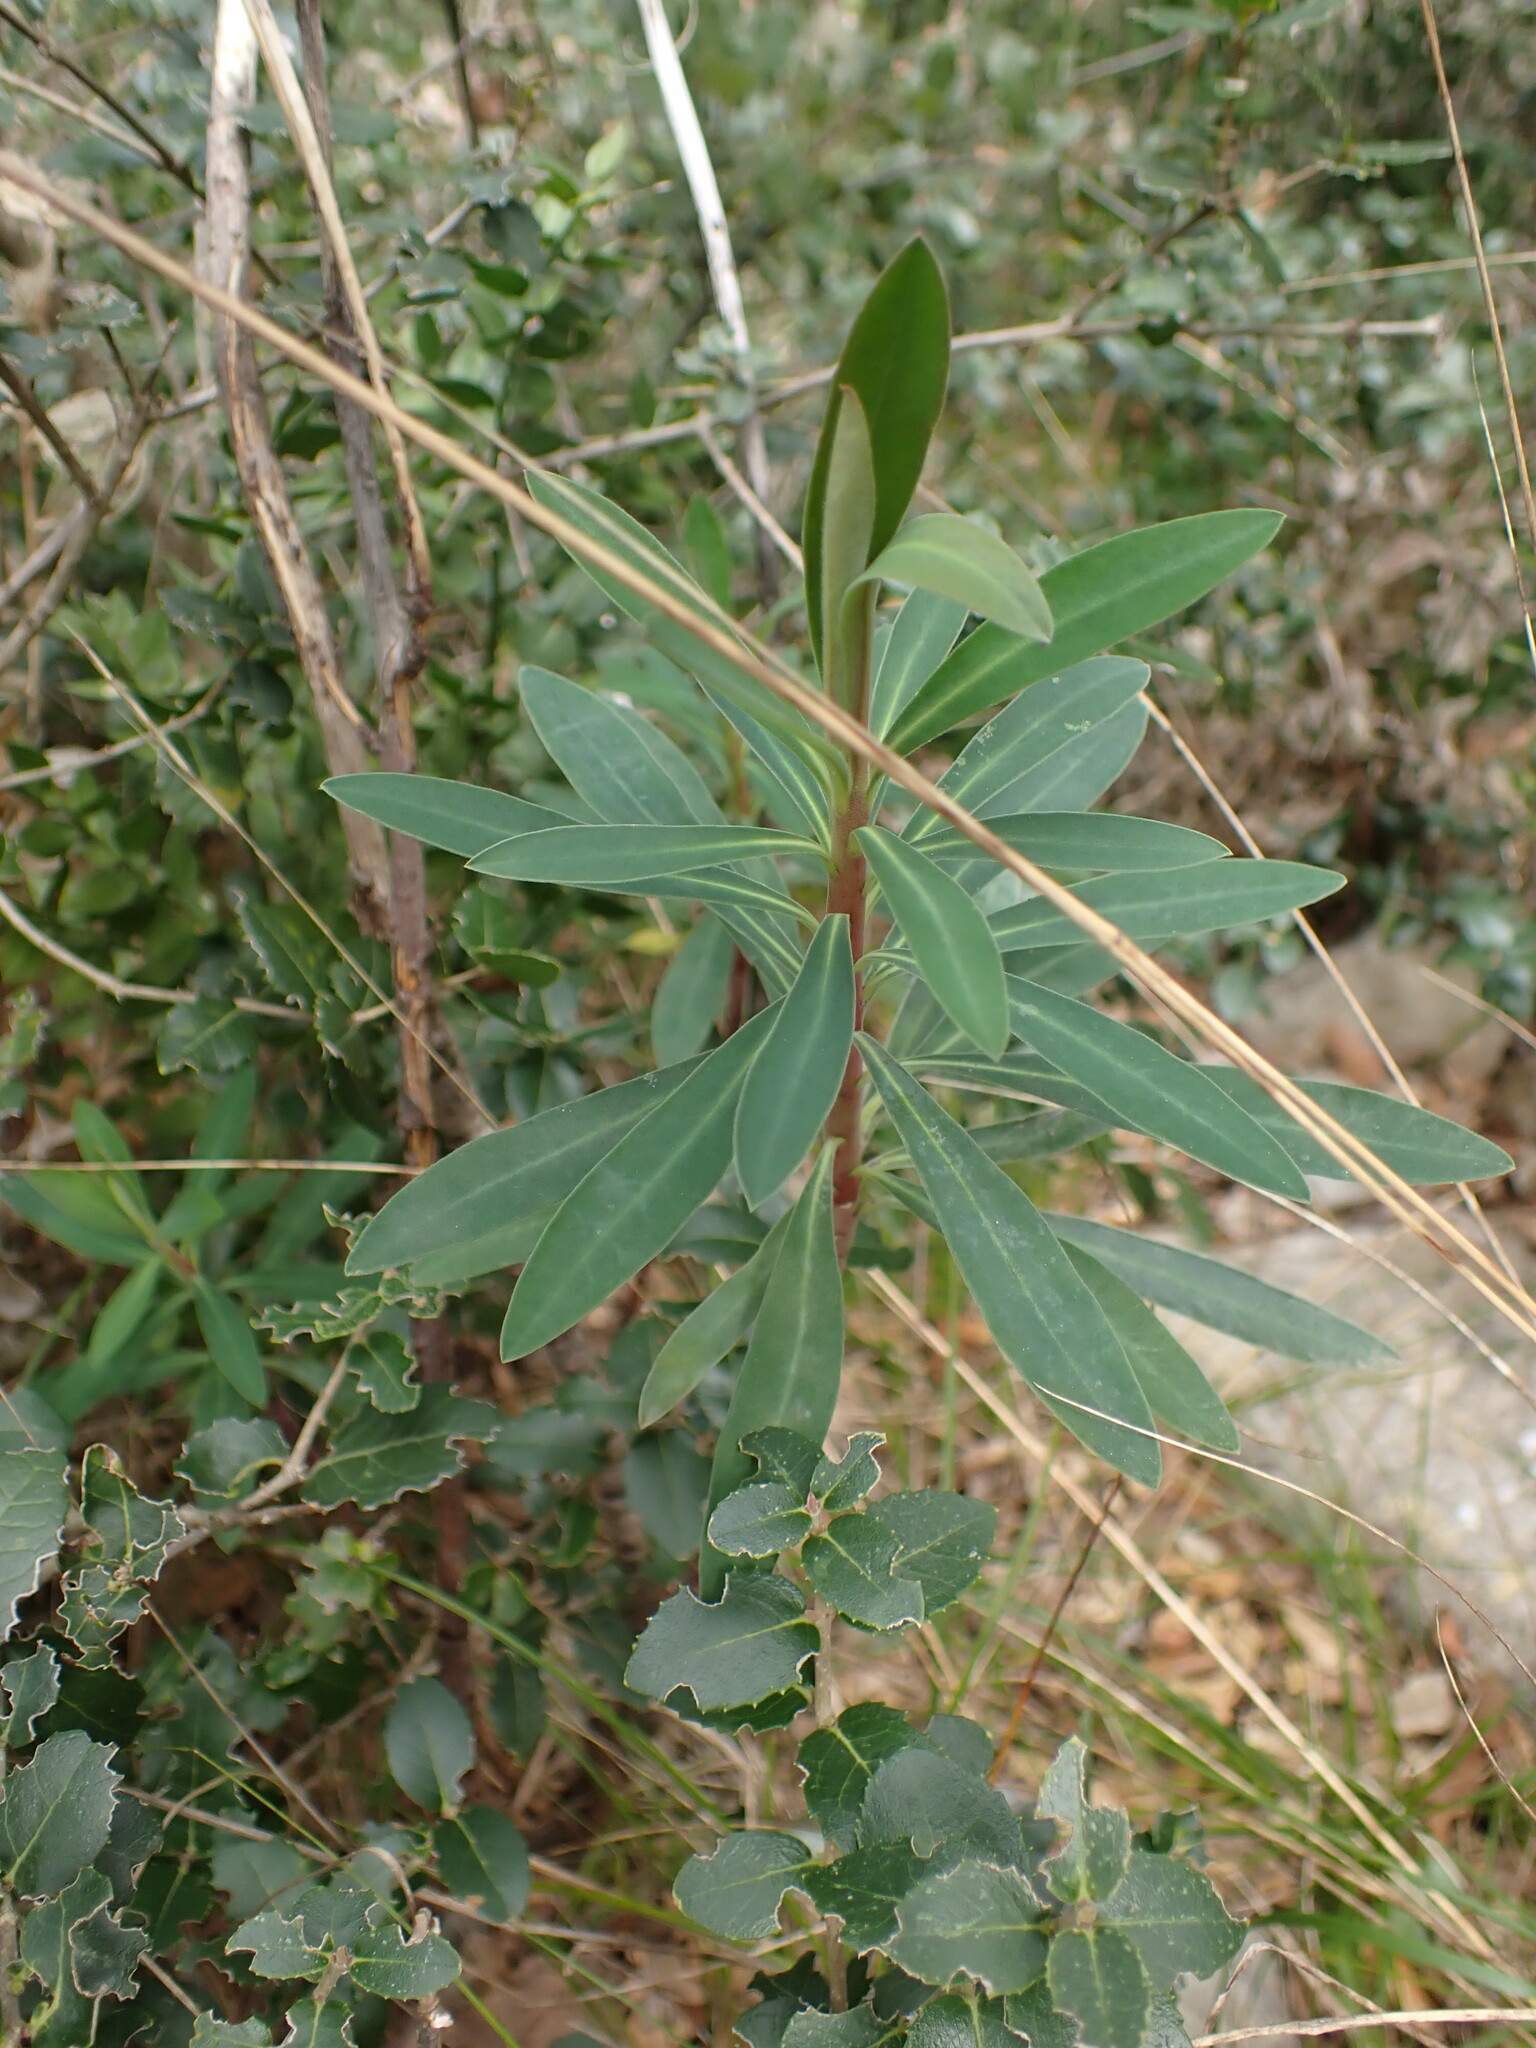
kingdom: Plantae
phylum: Tracheophyta
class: Magnoliopsida
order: Malpighiales
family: Euphorbiaceae
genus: Euphorbia
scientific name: Euphorbia characias
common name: Mediterranean spurge
